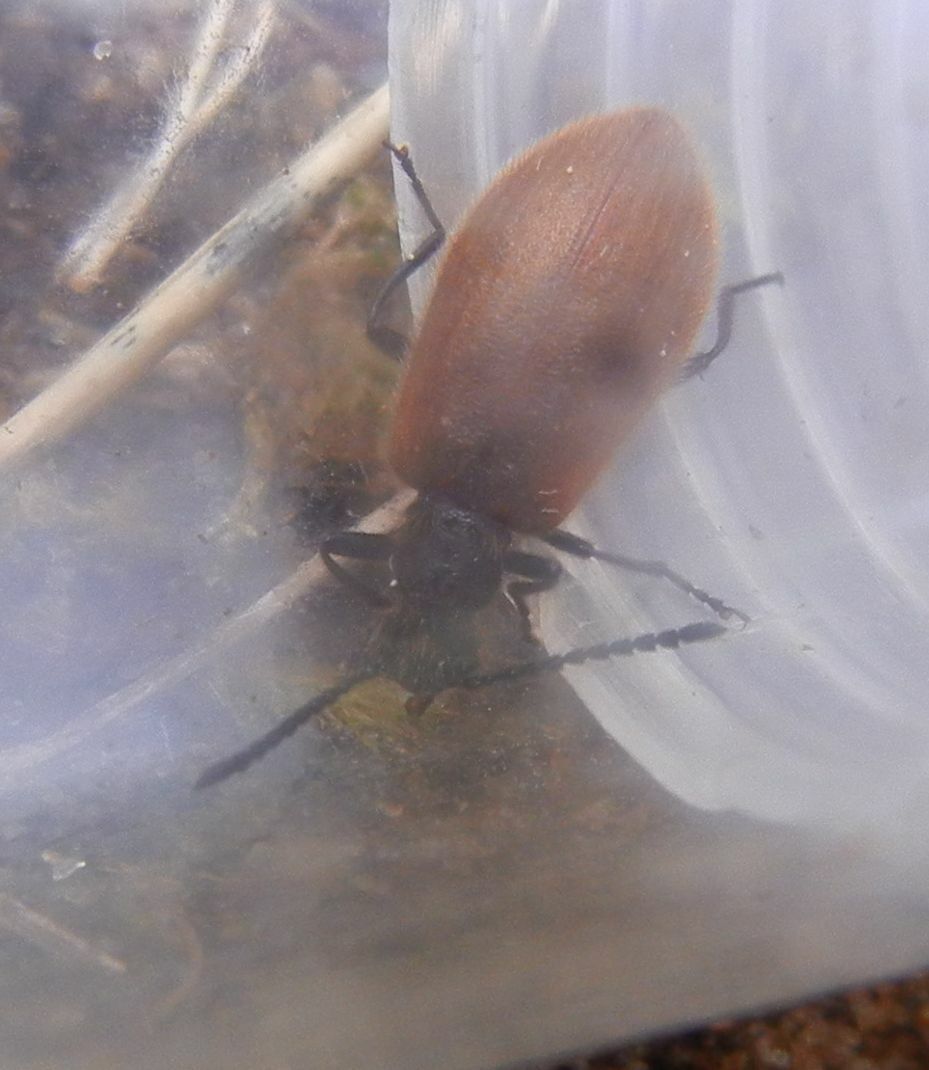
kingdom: Animalia
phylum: Arthropoda
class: Insecta
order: Coleoptera
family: Tenebrionidae
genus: Lagria
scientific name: Lagria hirta
